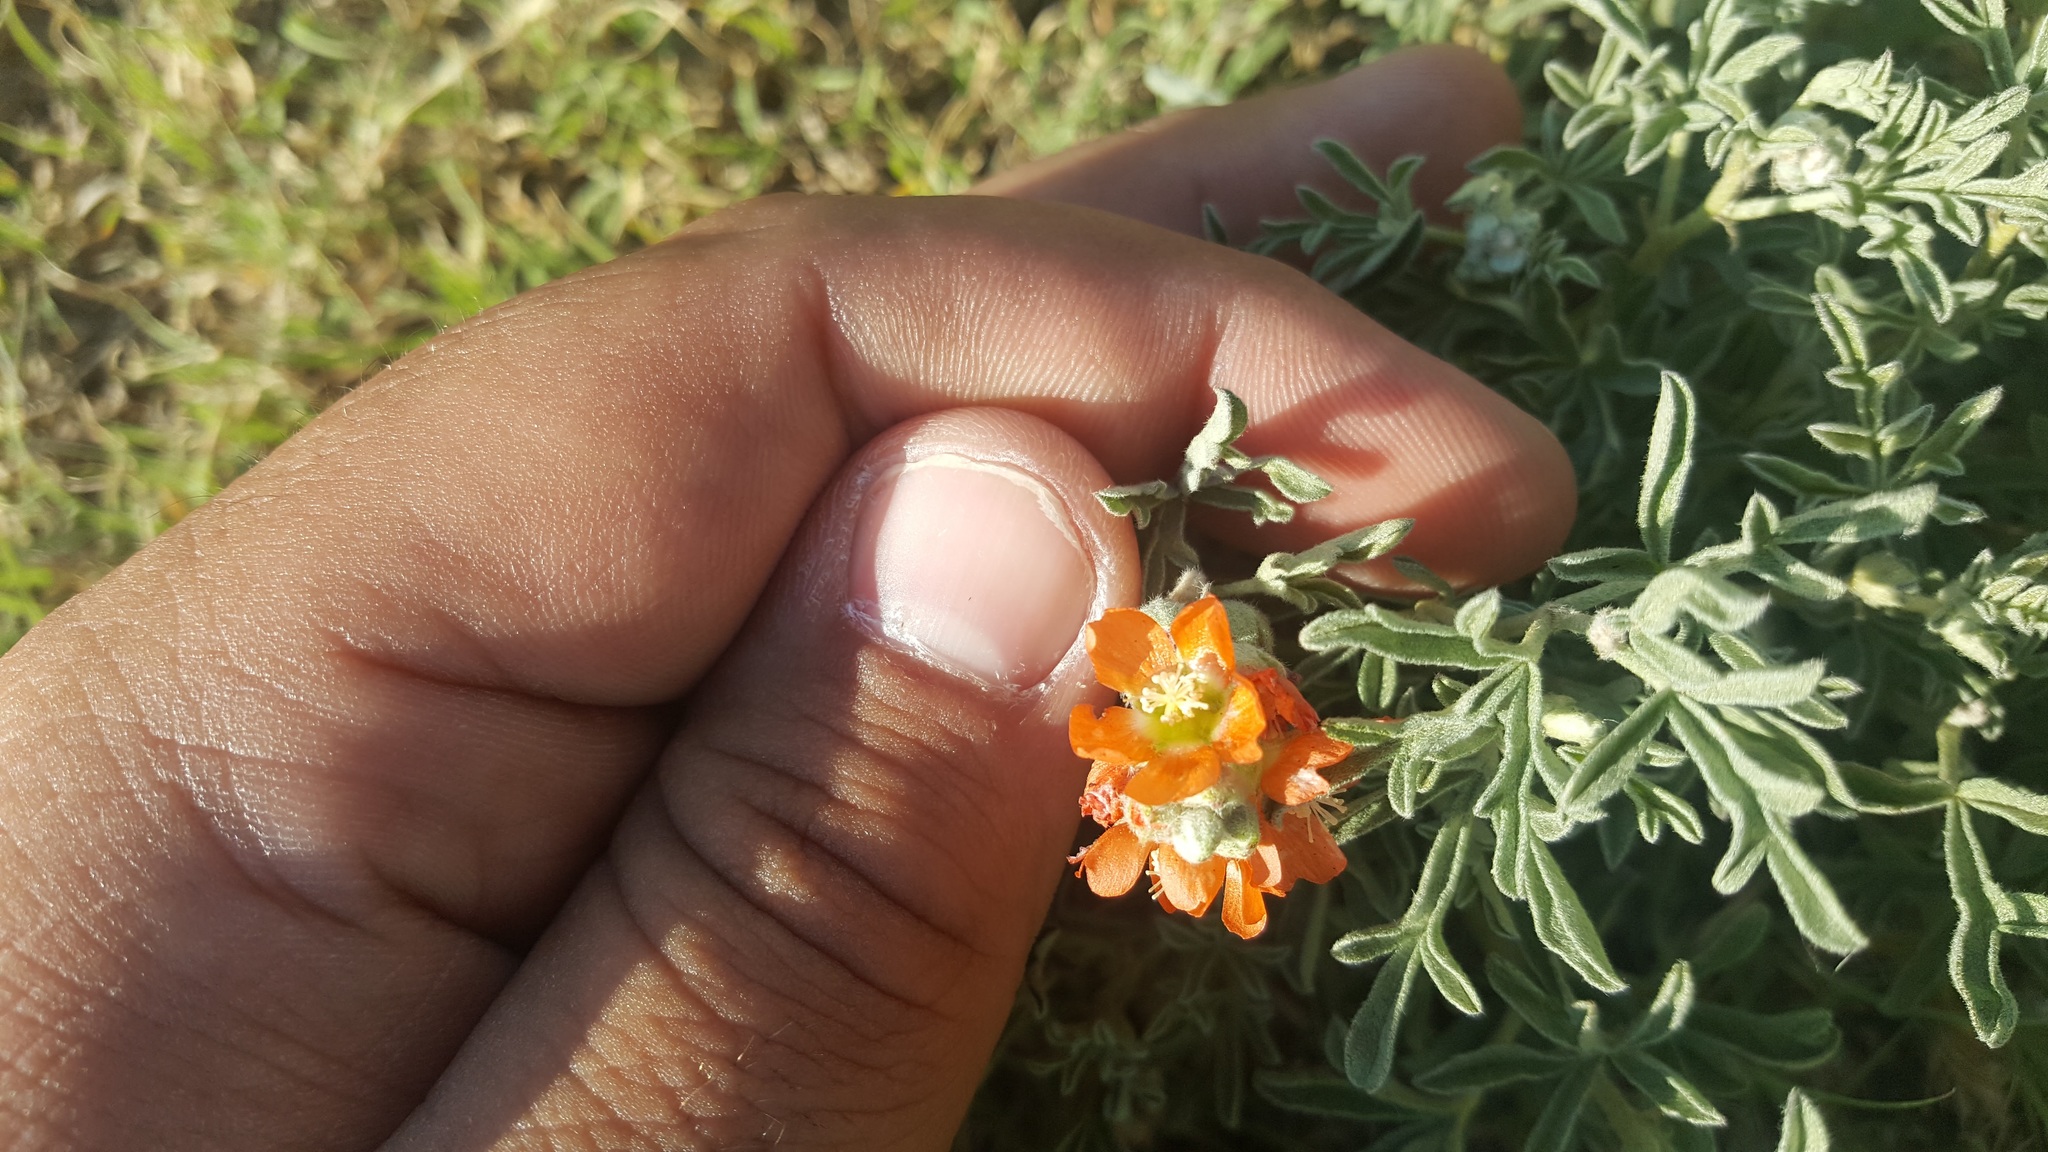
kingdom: Plantae
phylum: Tracheophyta
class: Magnoliopsida
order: Malvales
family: Malvaceae
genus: Sphaeralcea
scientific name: Sphaeralcea coccinea
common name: Moss-rose
